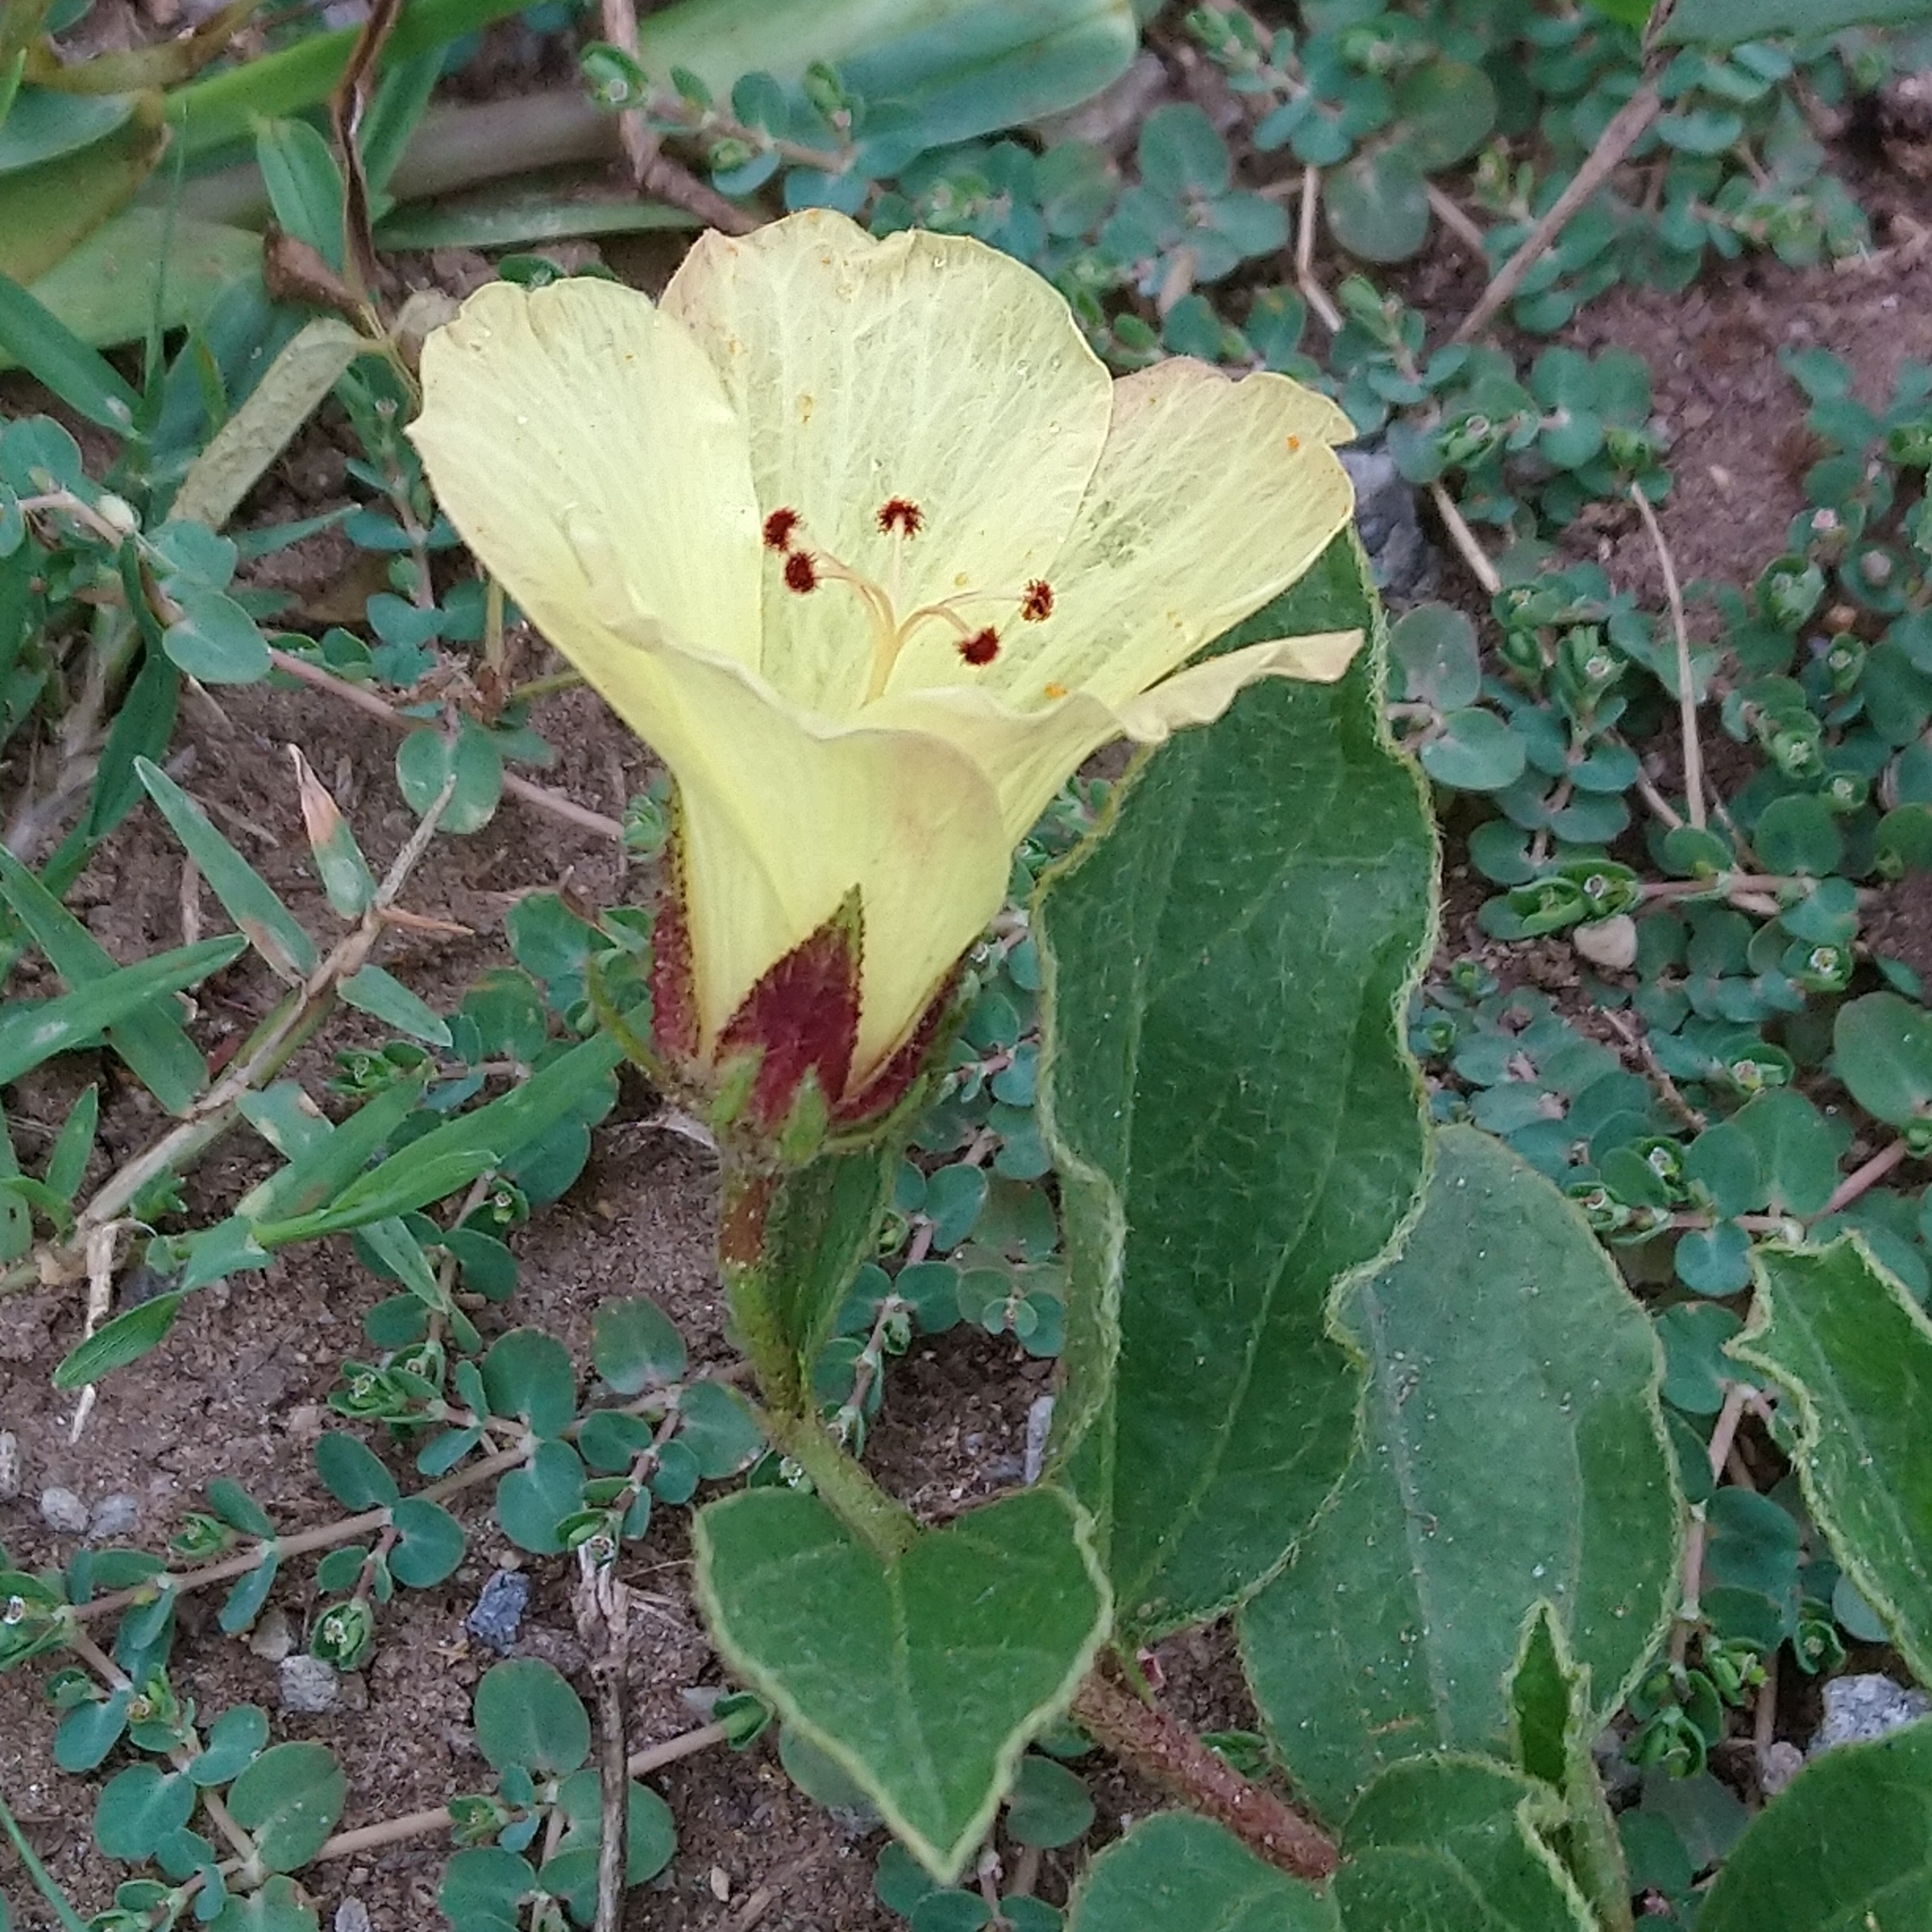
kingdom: Plantae
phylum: Tracheophyta
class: Magnoliopsida
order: Malvales
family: Malvaceae
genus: Hibiscus
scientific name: Hibiscus aethiopicus
